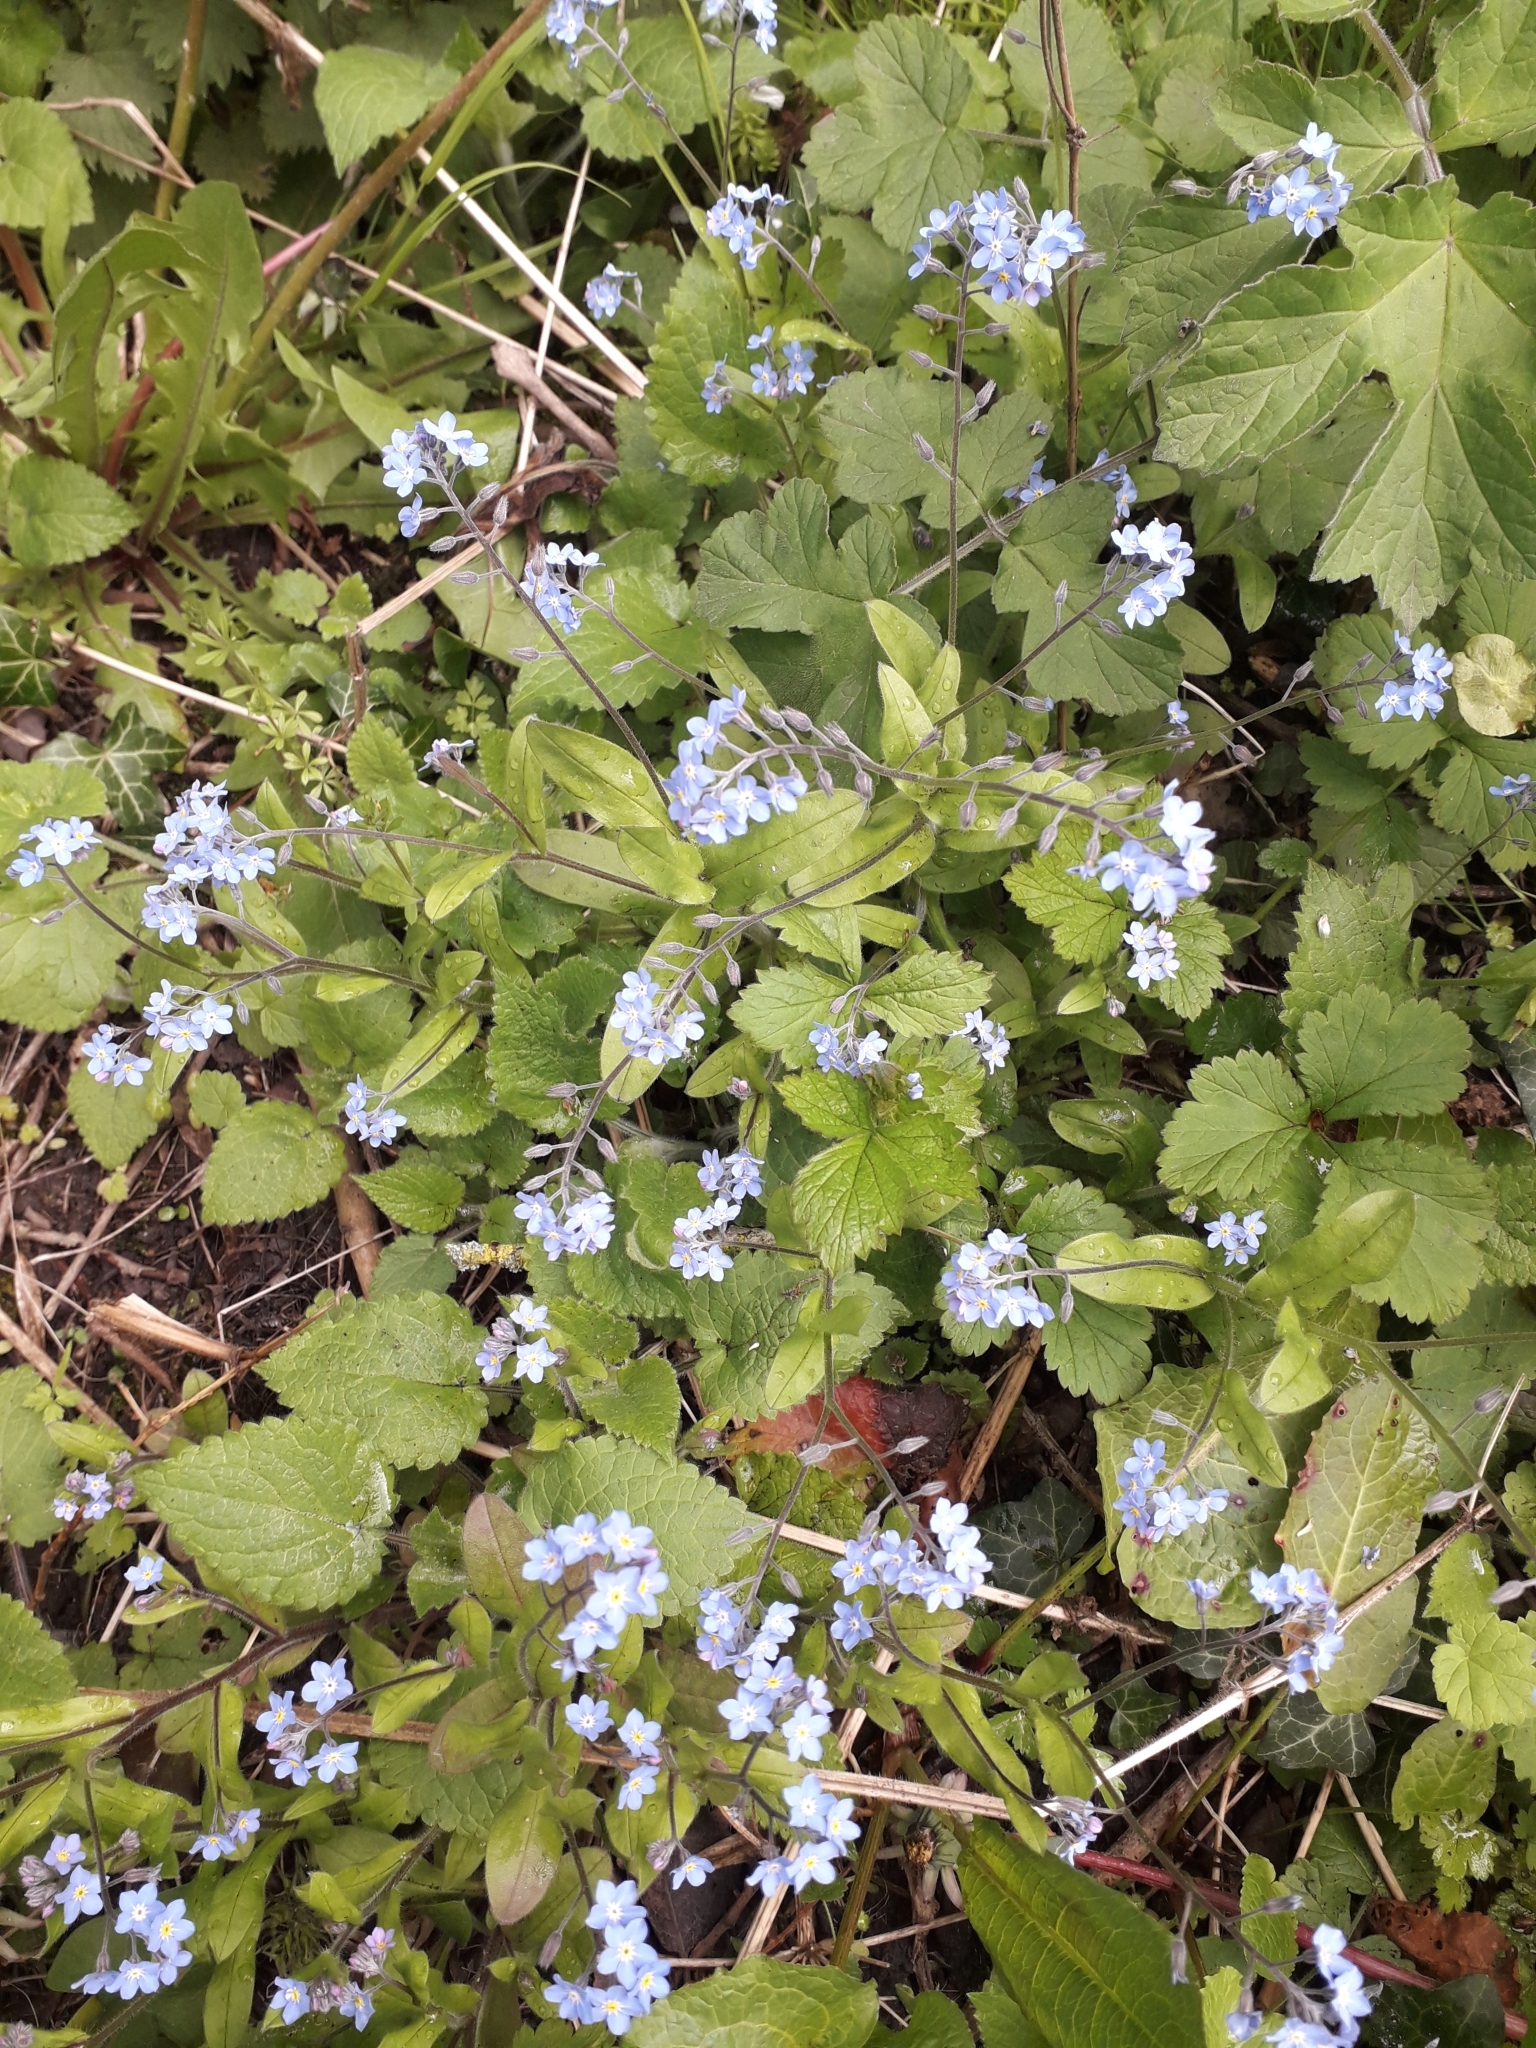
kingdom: Plantae
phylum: Tracheophyta
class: Magnoliopsida
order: Boraginales
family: Boraginaceae
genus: Myosotis
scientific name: Myosotis sylvatica
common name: Wood forget-me-not
